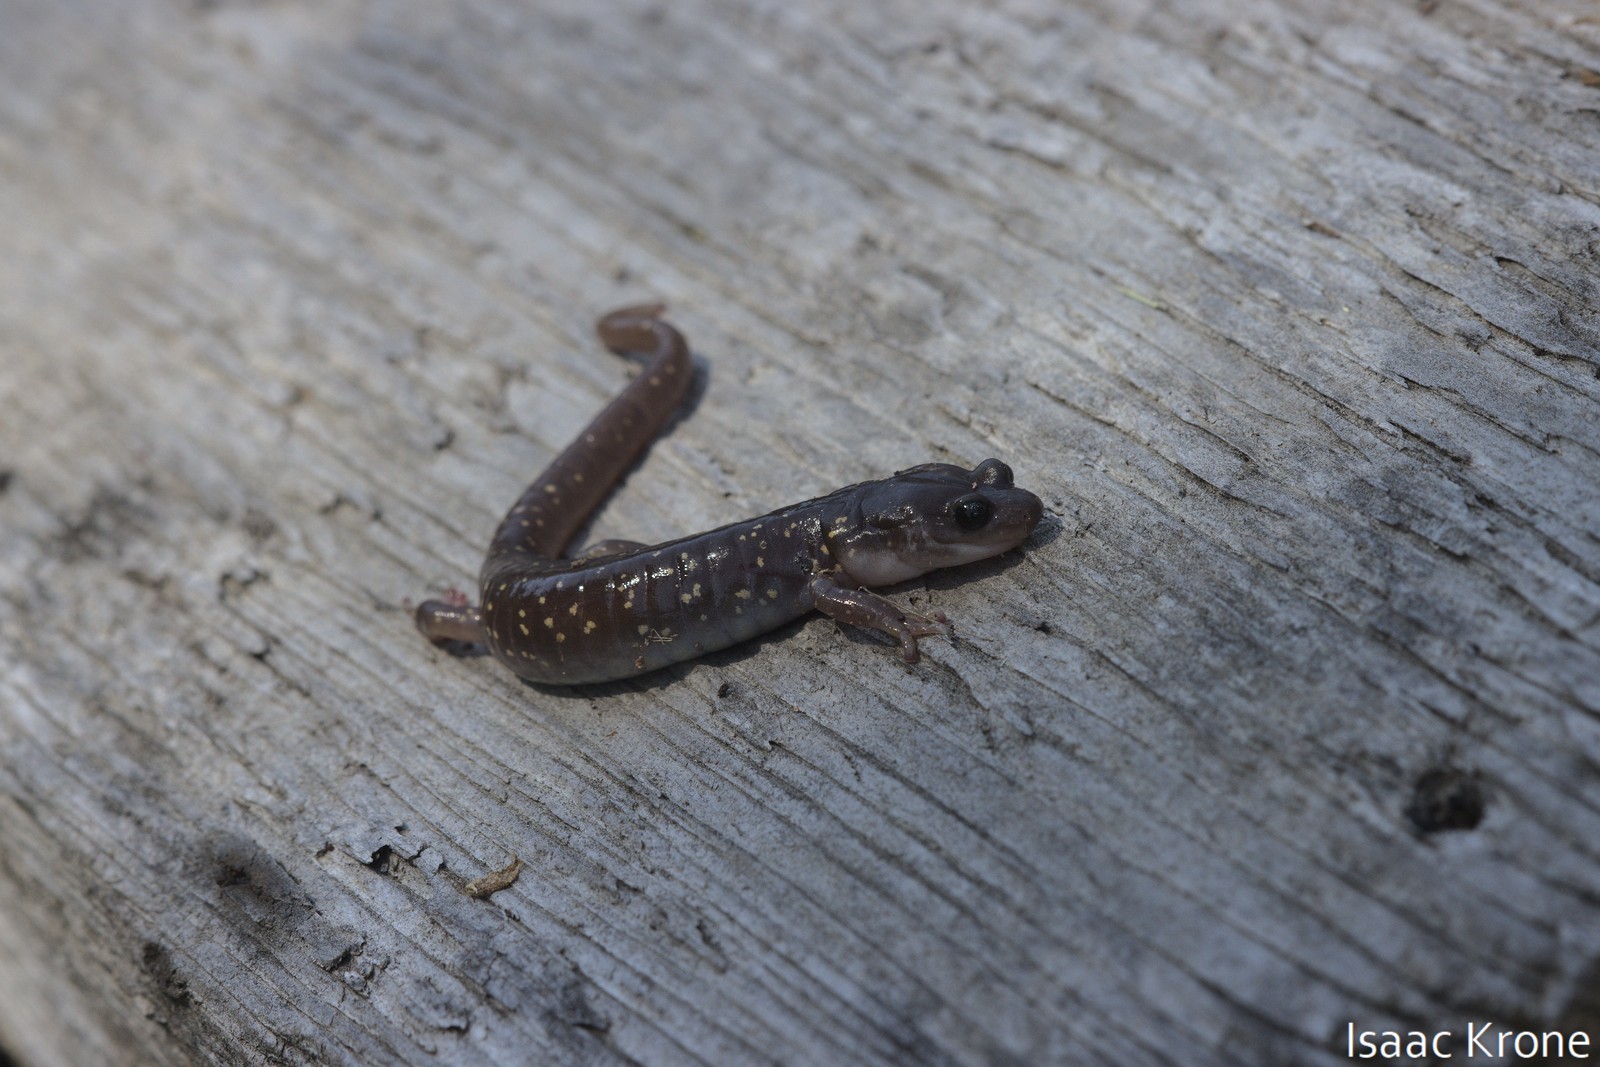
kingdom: Animalia
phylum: Chordata
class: Amphibia
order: Caudata
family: Plethodontidae
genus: Aneides
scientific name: Aneides lugubris
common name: Arboreal salamander
